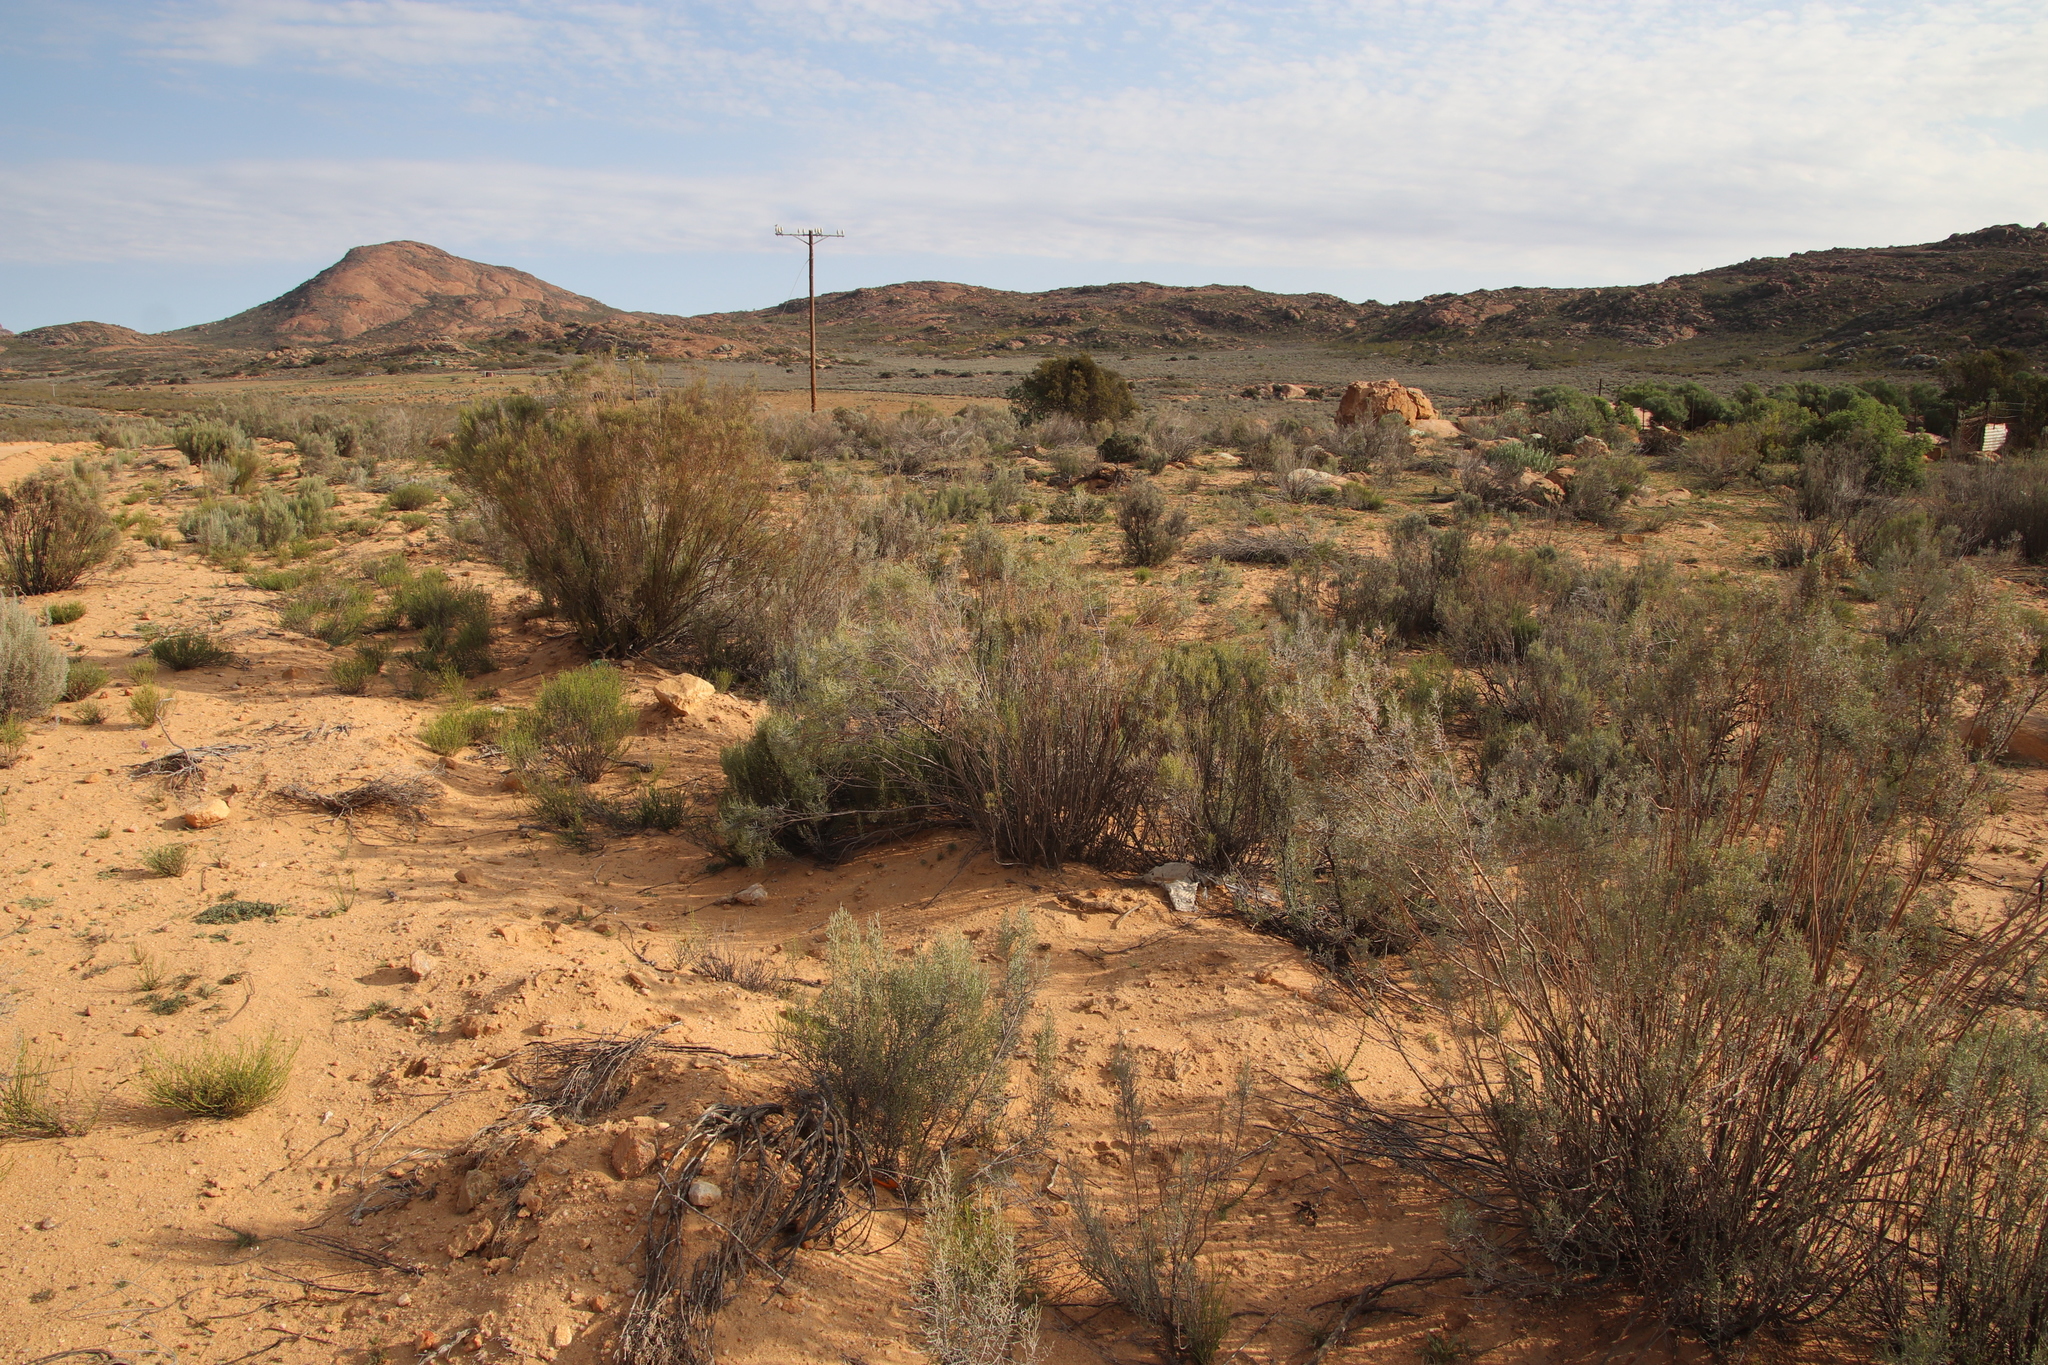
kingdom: Plantae
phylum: Tracheophyta
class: Magnoliopsida
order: Asterales
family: Asteraceae
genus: Dicerothamnus
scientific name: Dicerothamnus rhinocerotis
